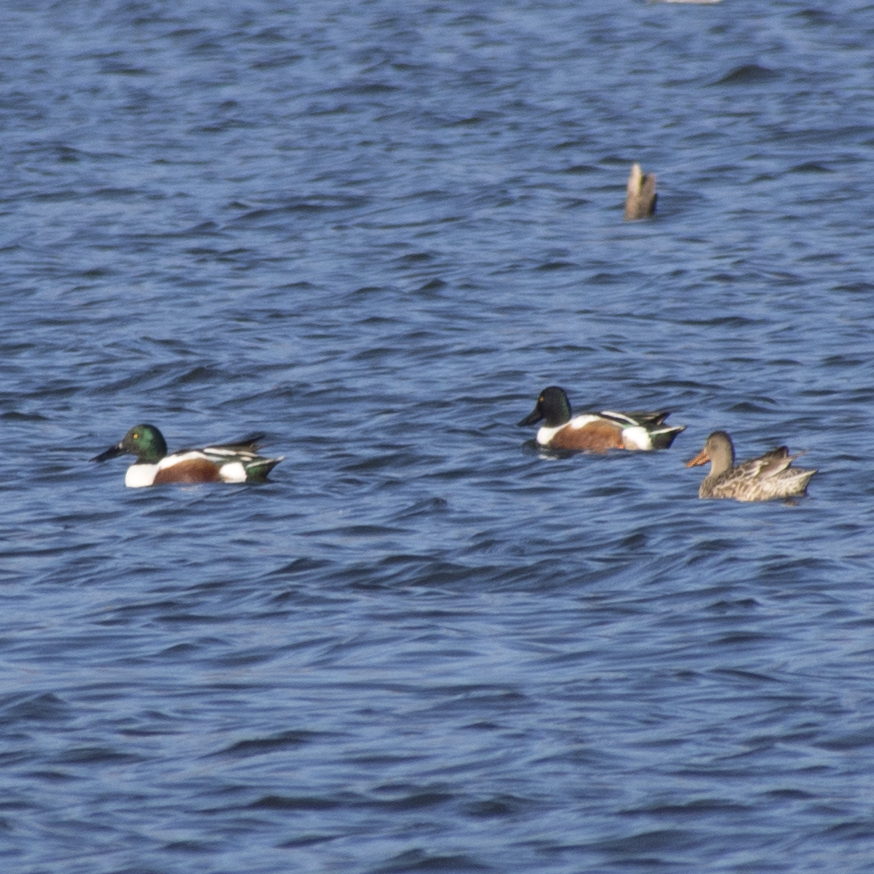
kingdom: Animalia
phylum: Chordata
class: Aves
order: Anseriformes
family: Anatidae
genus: Spatula
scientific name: Spatula clypeata
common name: Northern shoveler
